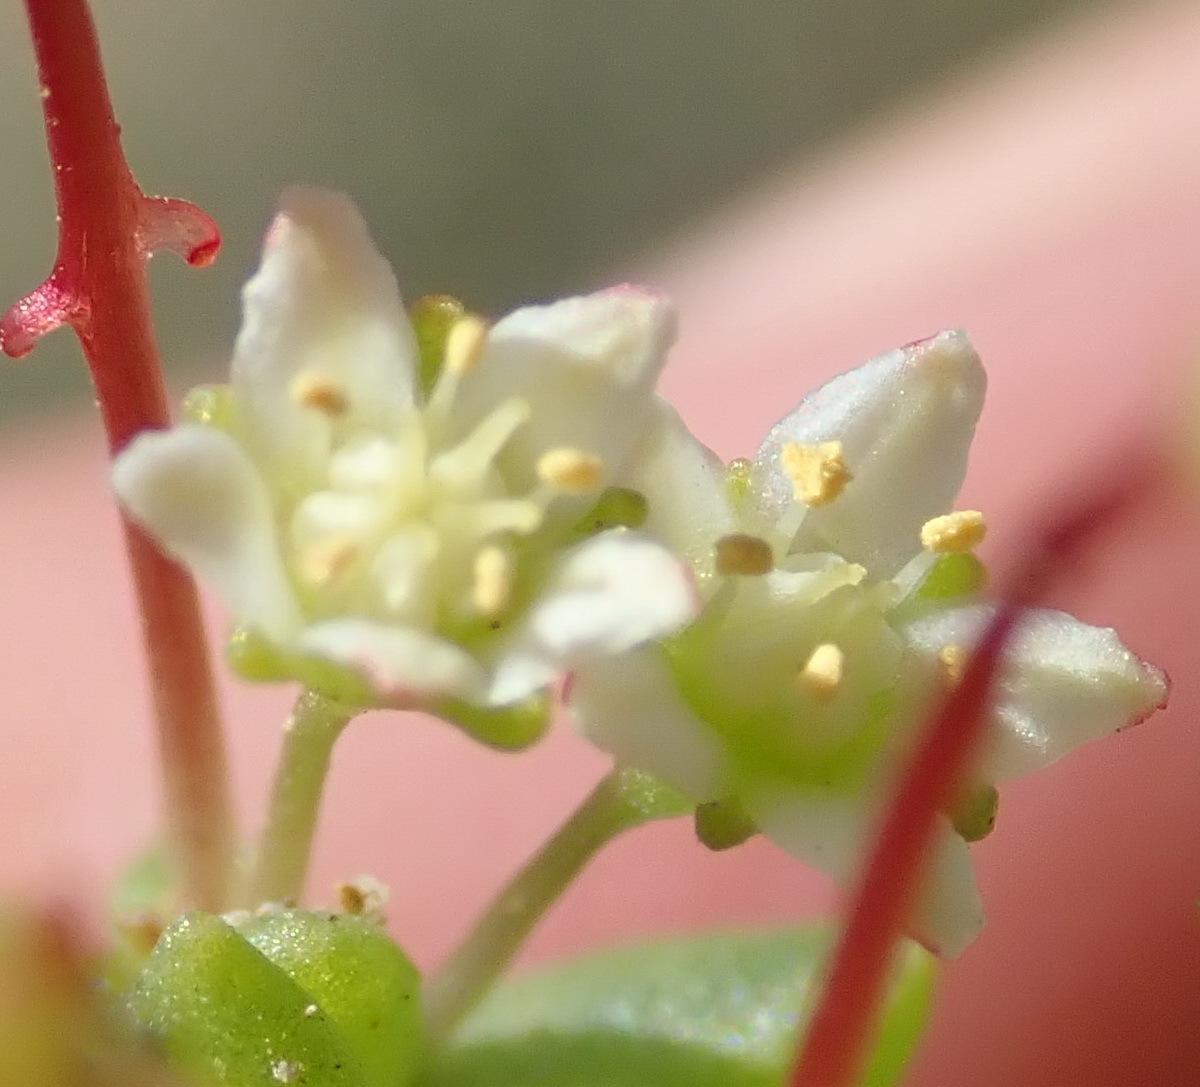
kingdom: Plantae
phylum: Tracheophyta
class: Magnoliopsida
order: Saxifragales
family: Crassulaceae
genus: Crassula
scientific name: Crassula expansa
